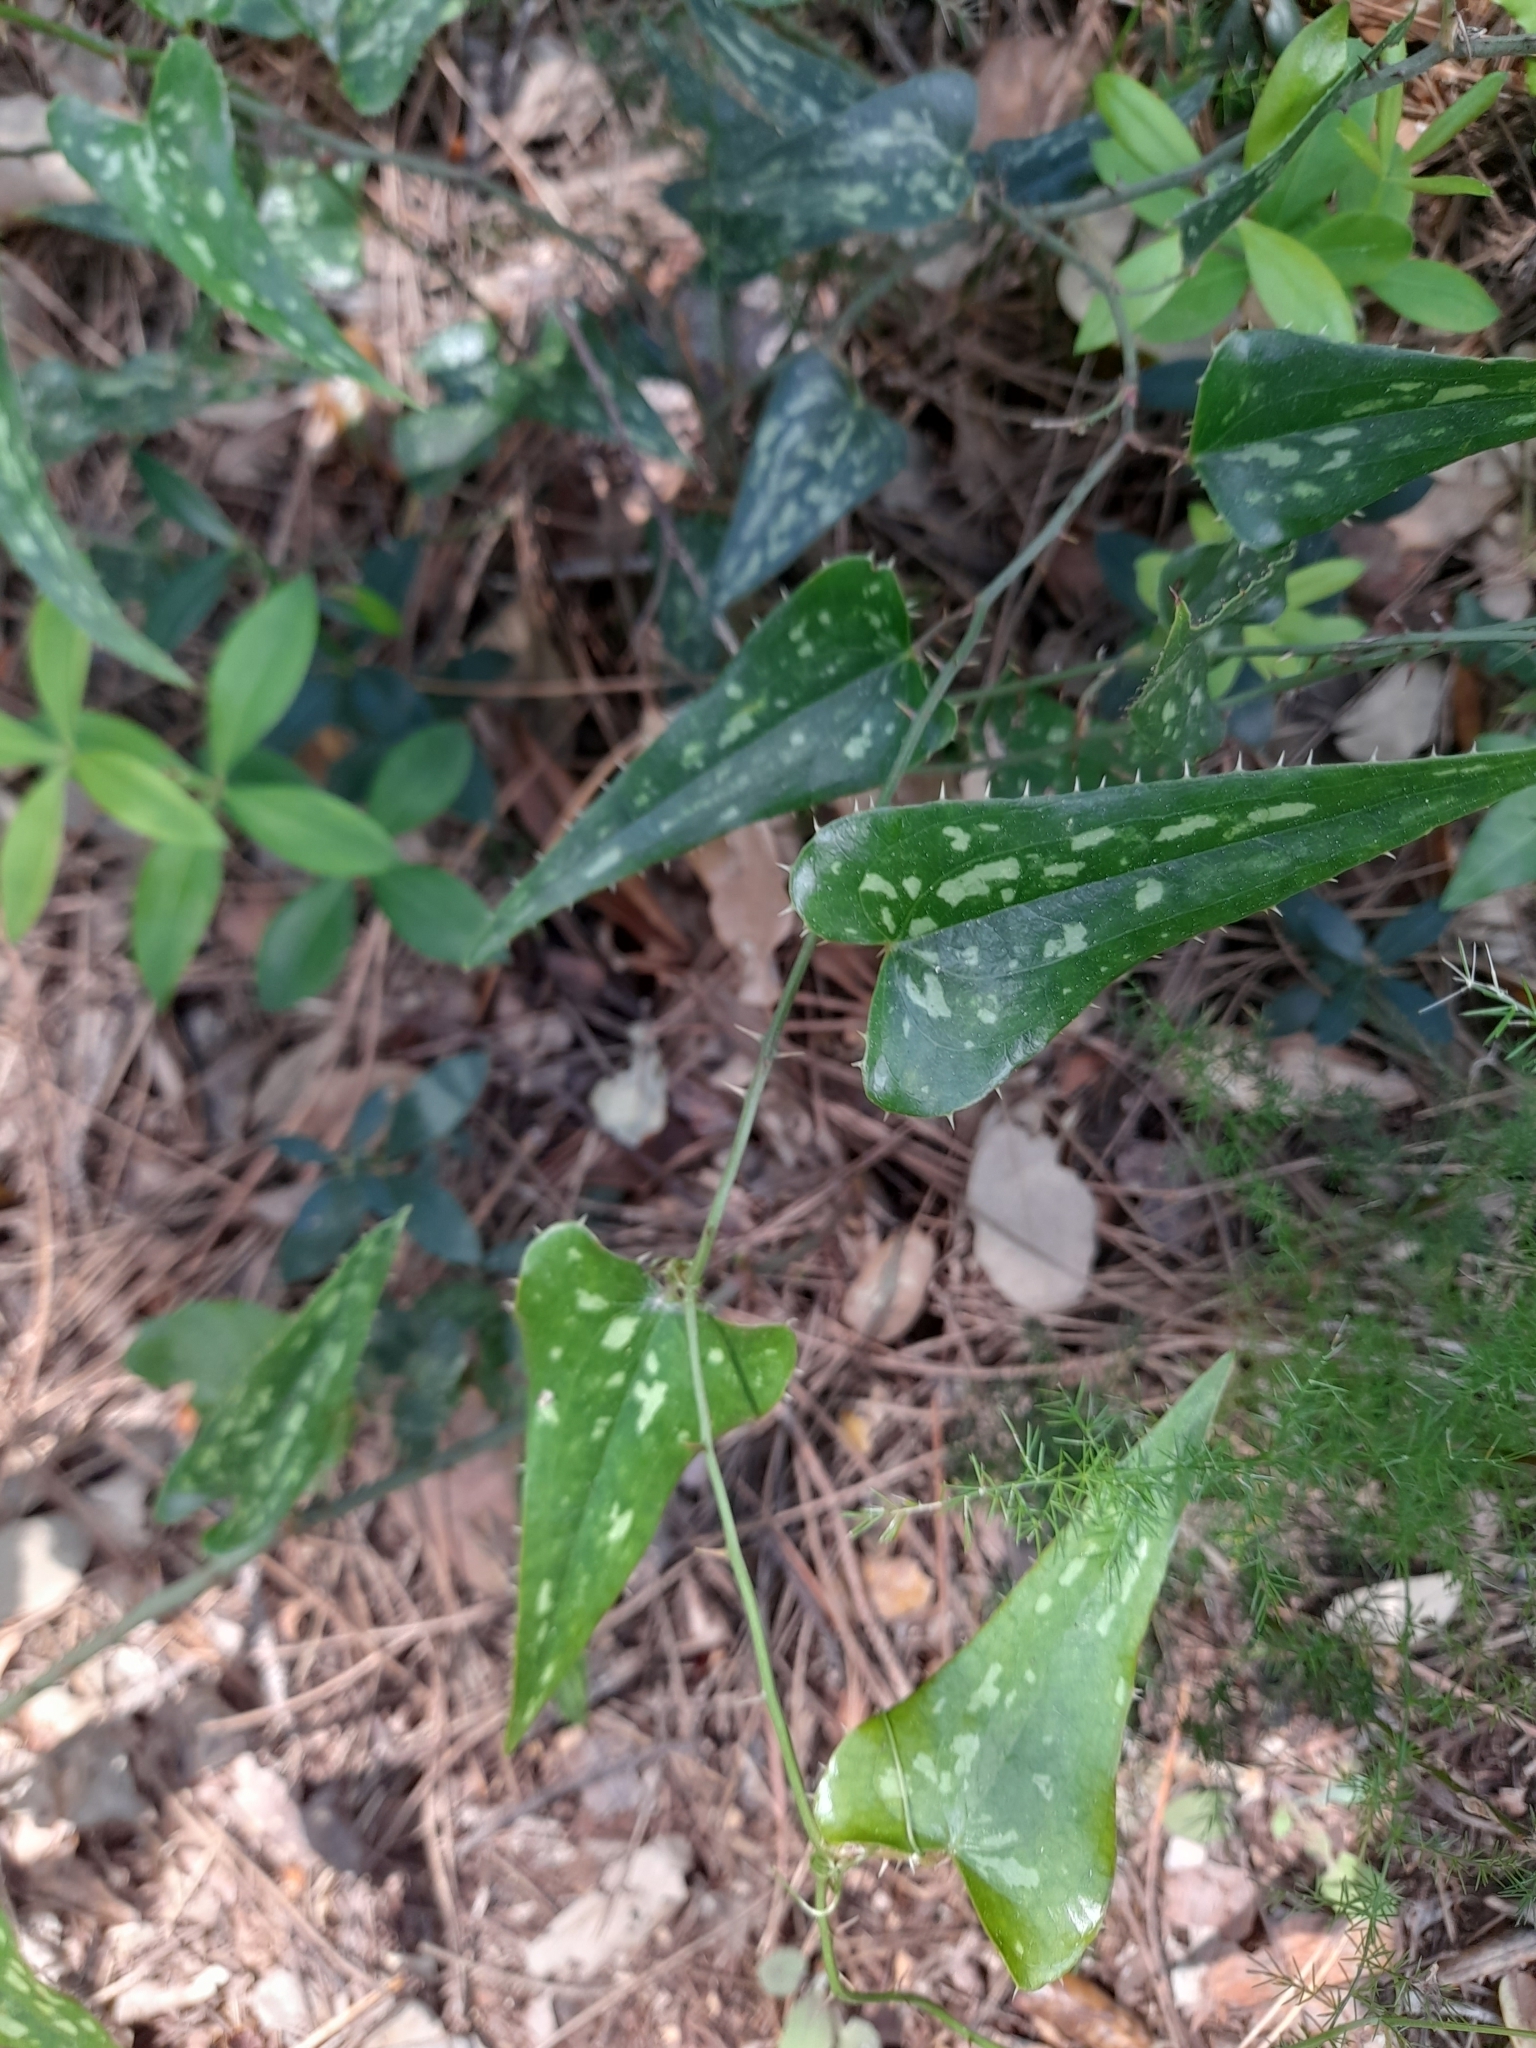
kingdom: Plantae
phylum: Tracheophyta
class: Liliopsida
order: Liliales
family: Smilacaceae
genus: Smilax
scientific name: Smilax aspera
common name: Common smilax
